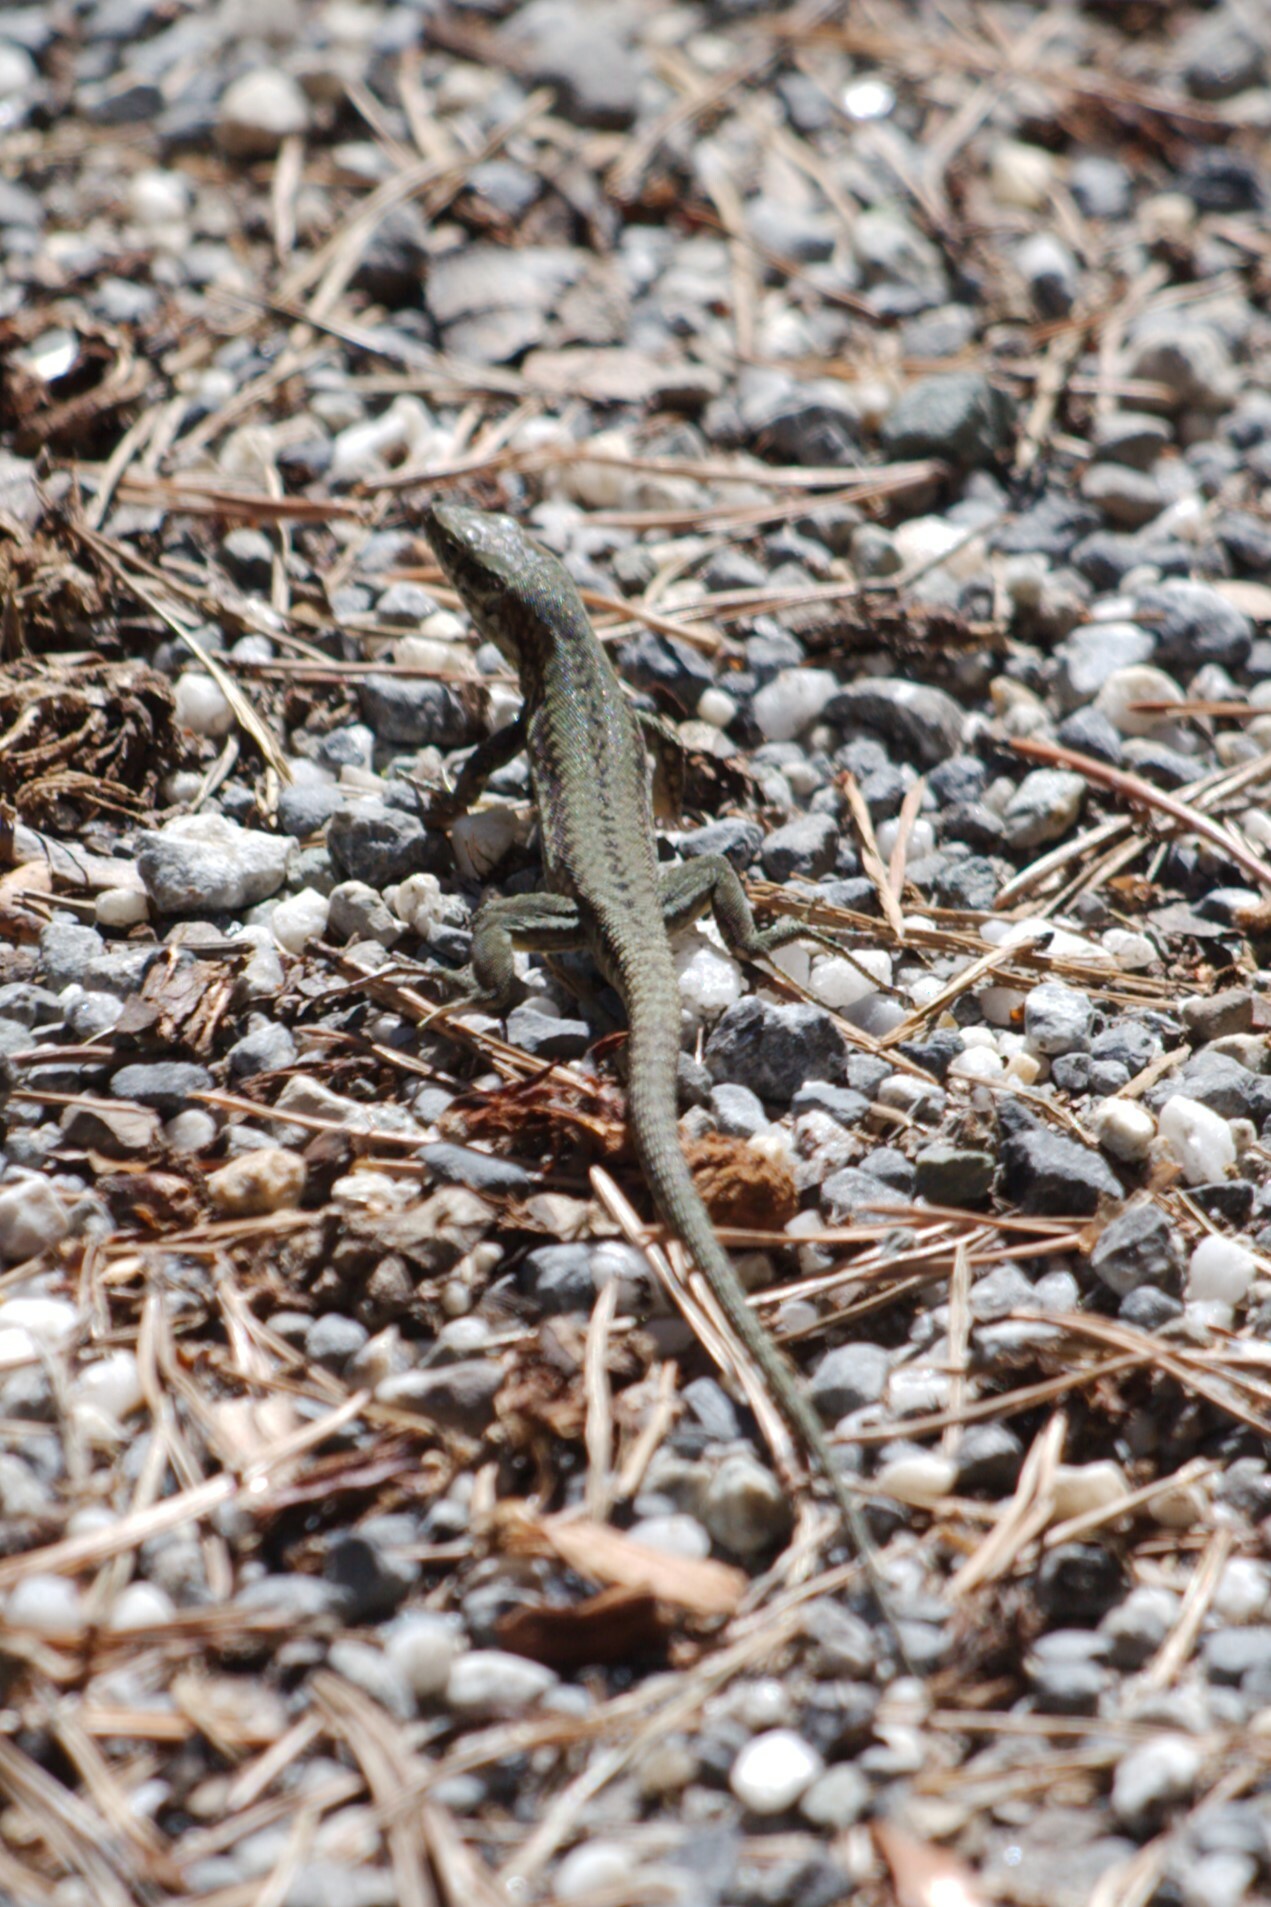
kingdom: Animalia
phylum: Chordata
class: Squamata
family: Lacertidae
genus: Podarcis
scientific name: Podarcis muralis
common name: Common wall lizard
